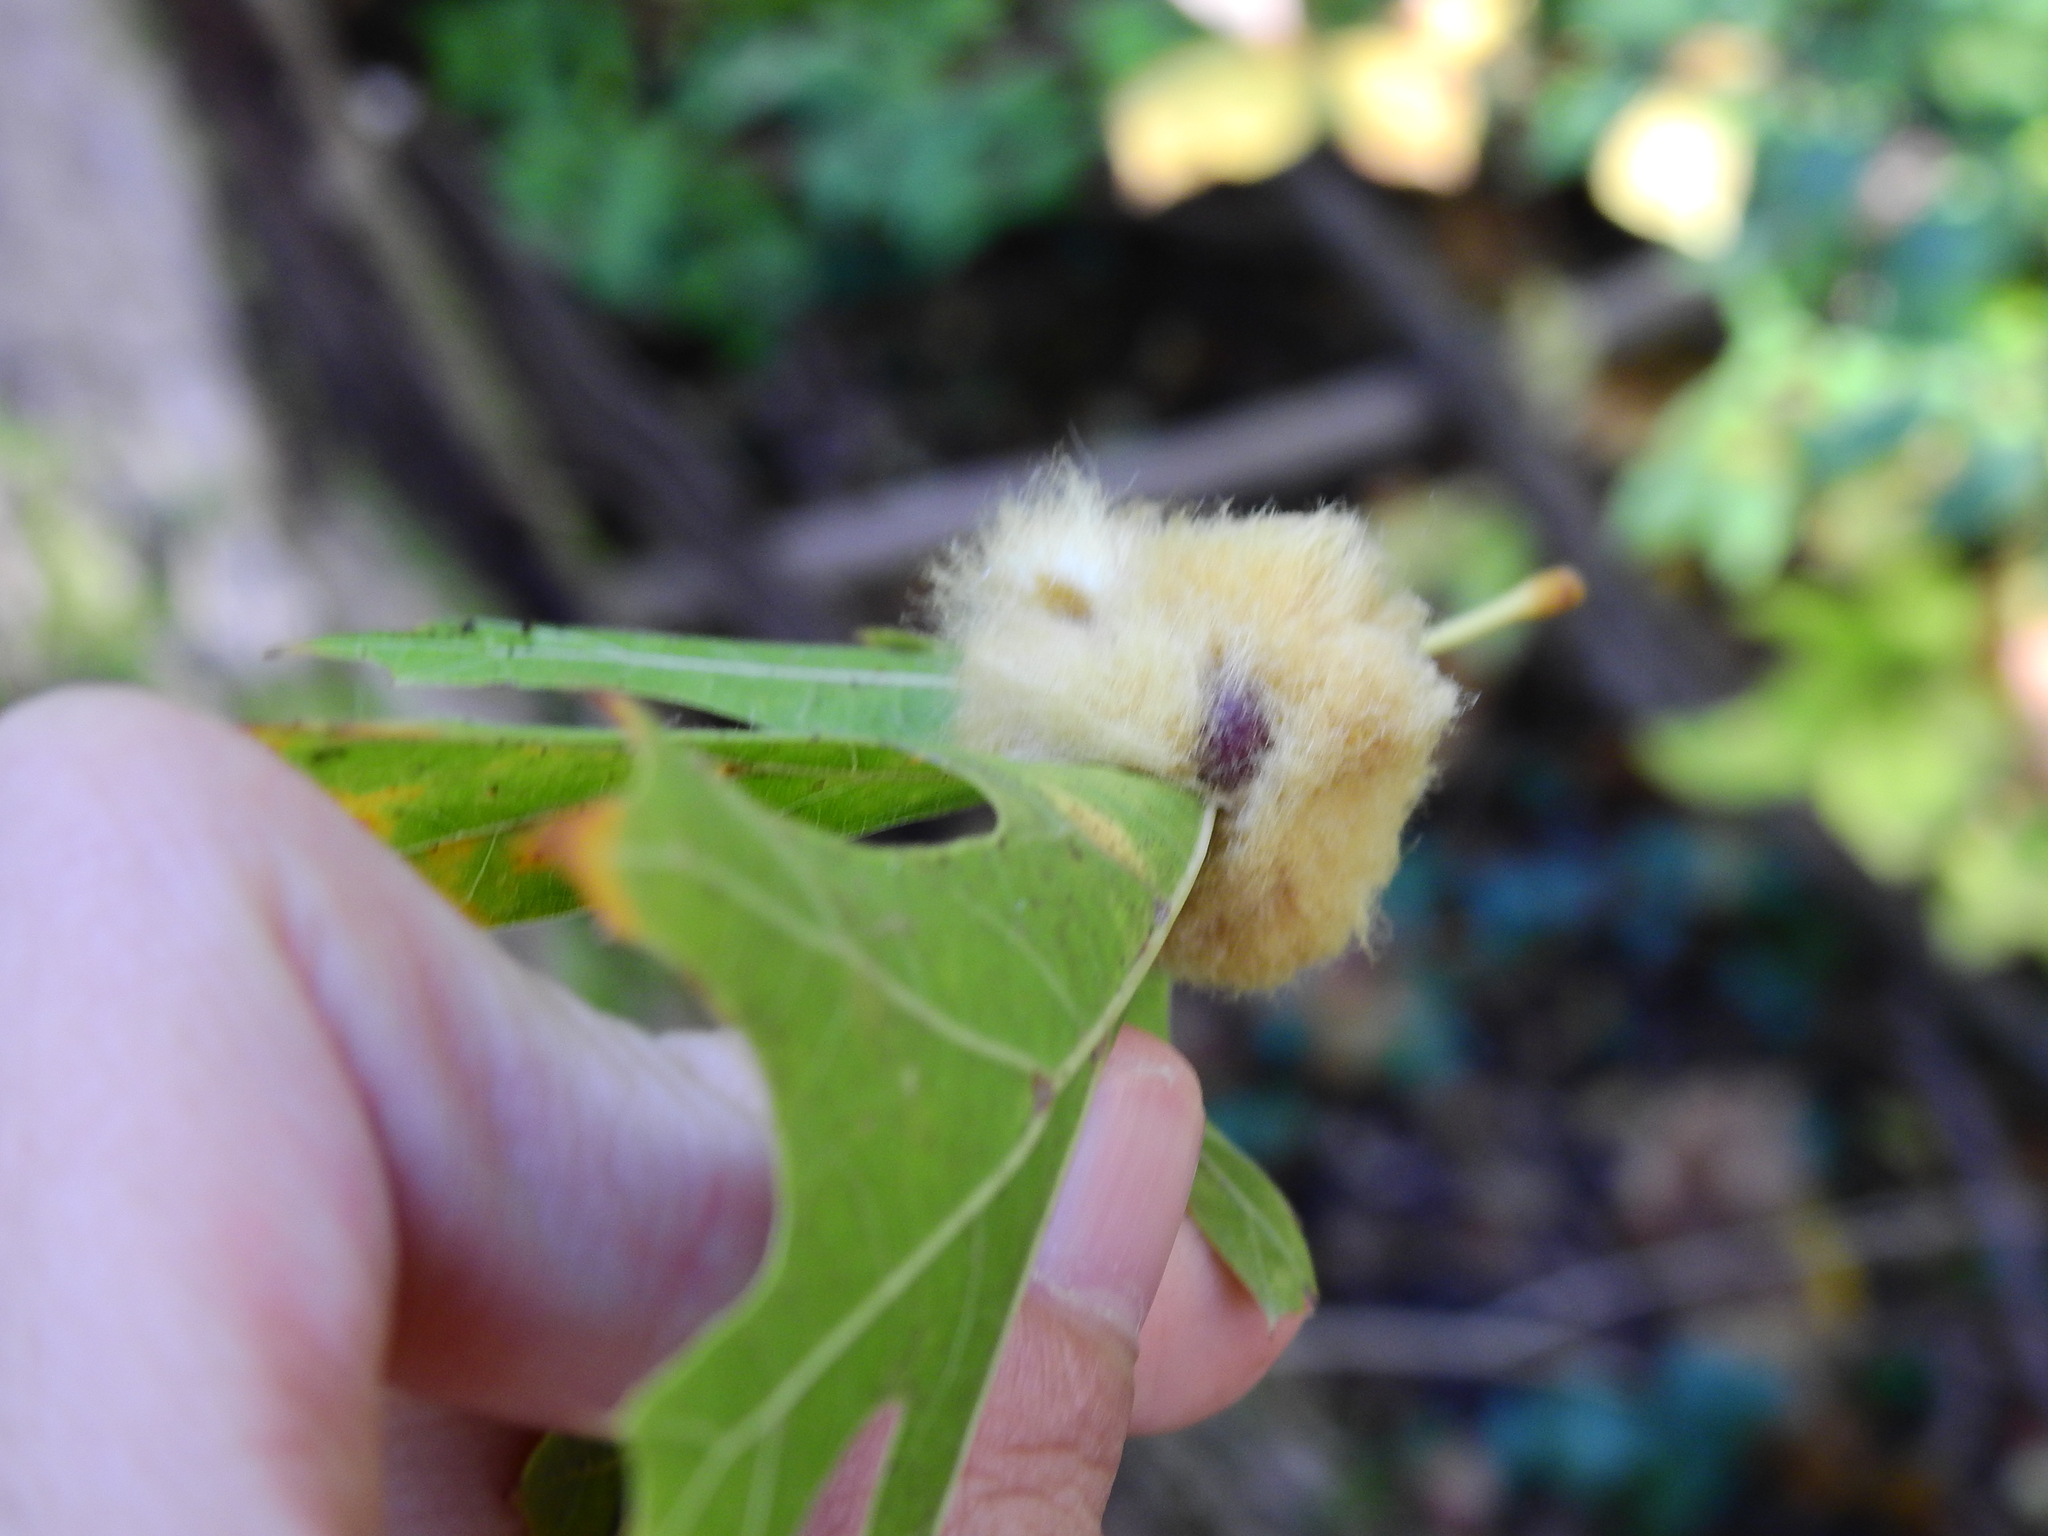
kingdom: Animalia
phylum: Arthropoda
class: Insecta
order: Hymenoptera
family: Cynipidae
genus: Callirhytis
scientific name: Callirhytis
